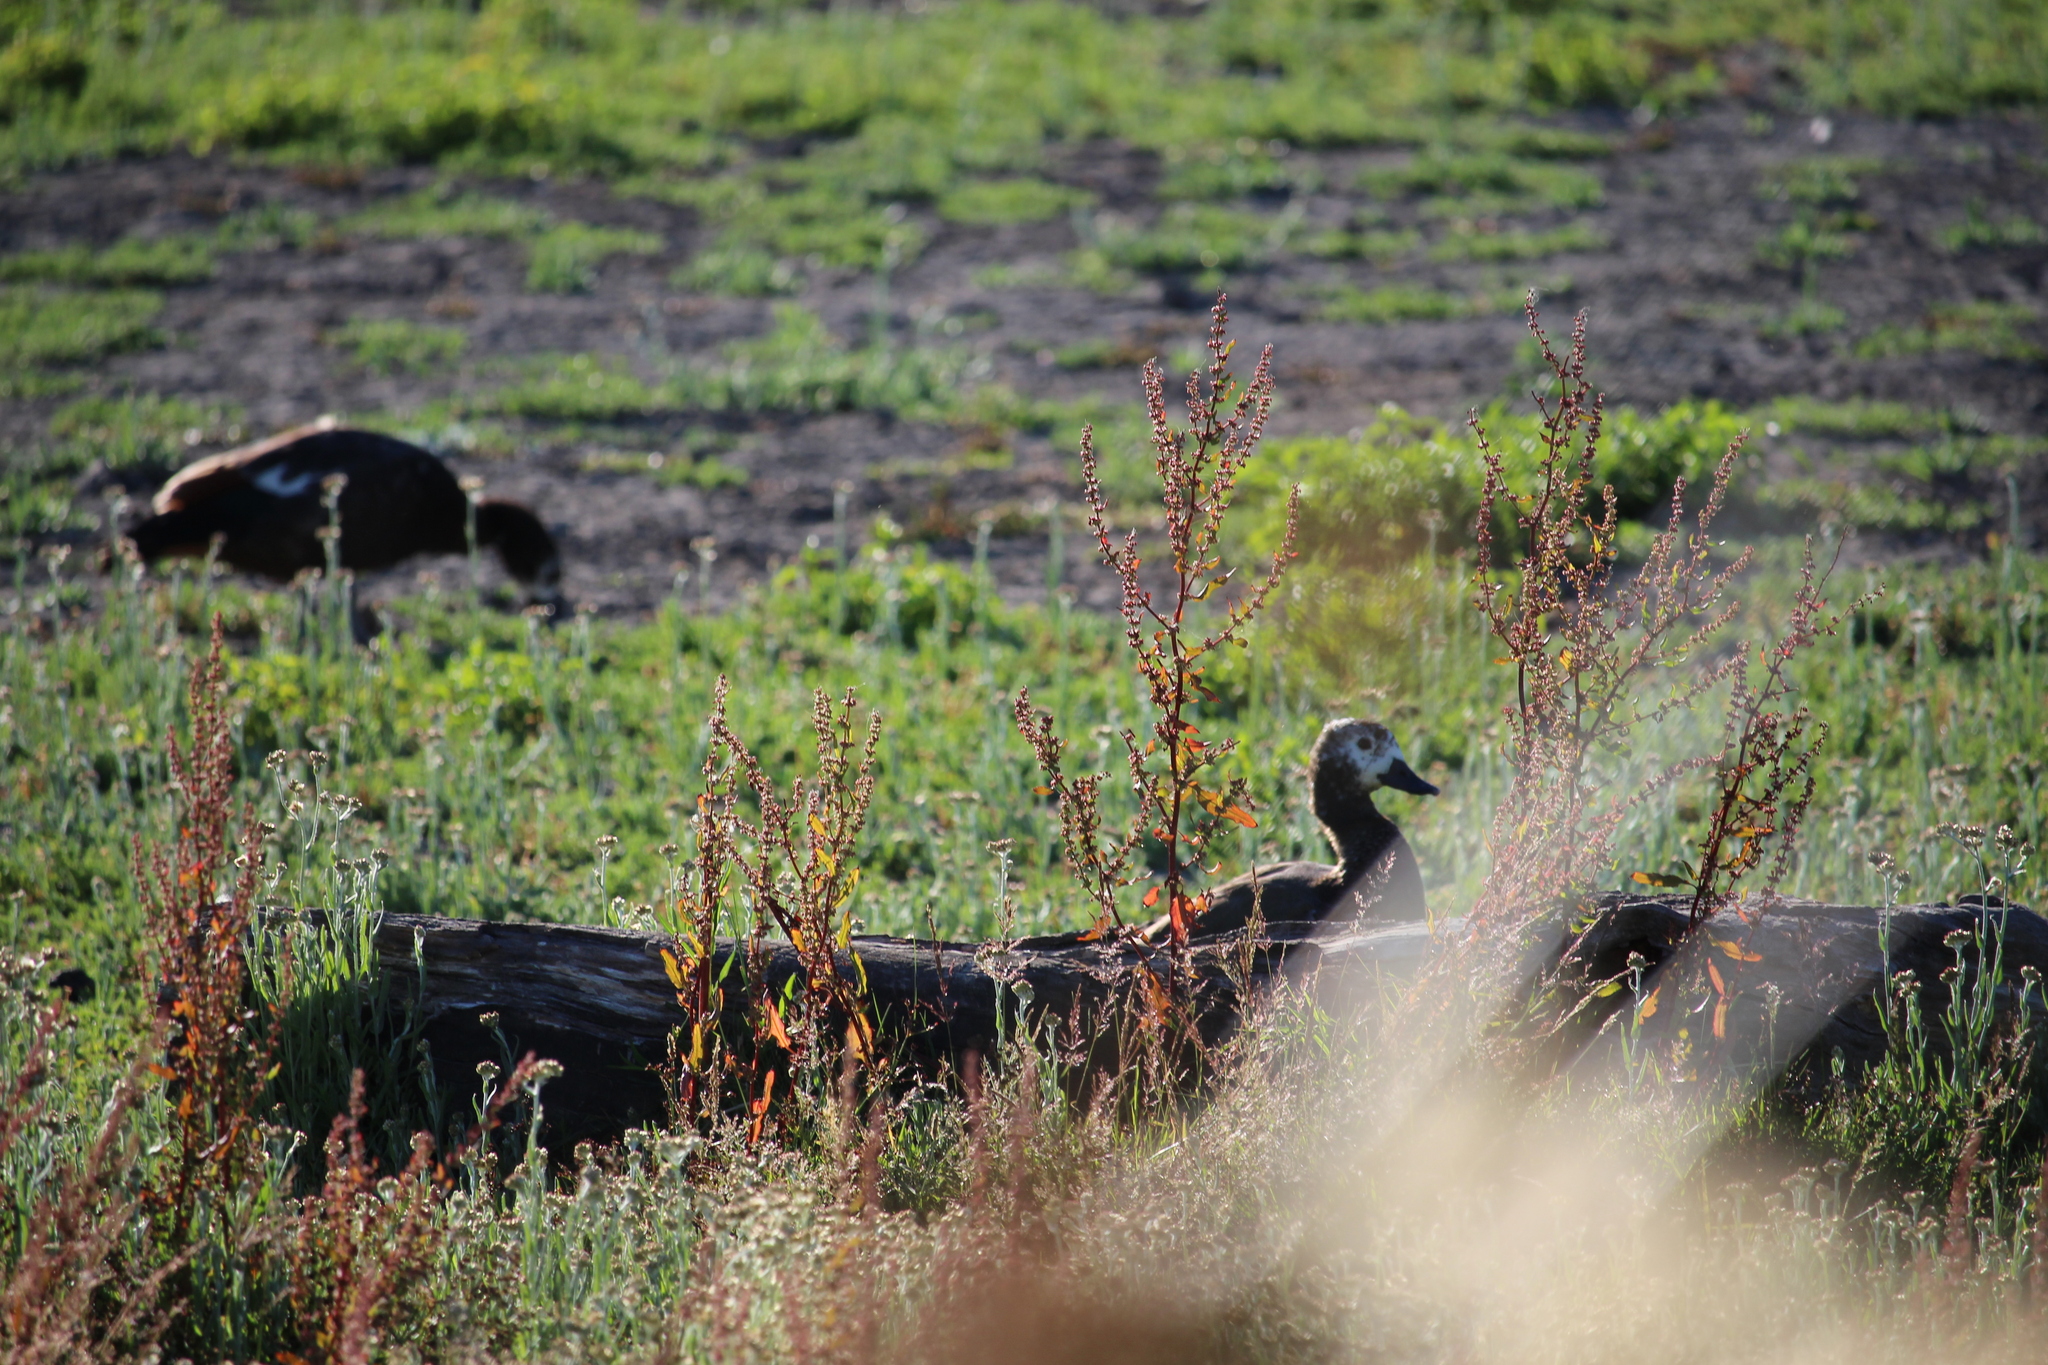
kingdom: Animalia
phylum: Chordata
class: Aves
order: Anseriformes
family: Anatidae
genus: Tadorna
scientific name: Tadorna variegata
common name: Paradise shelduck
